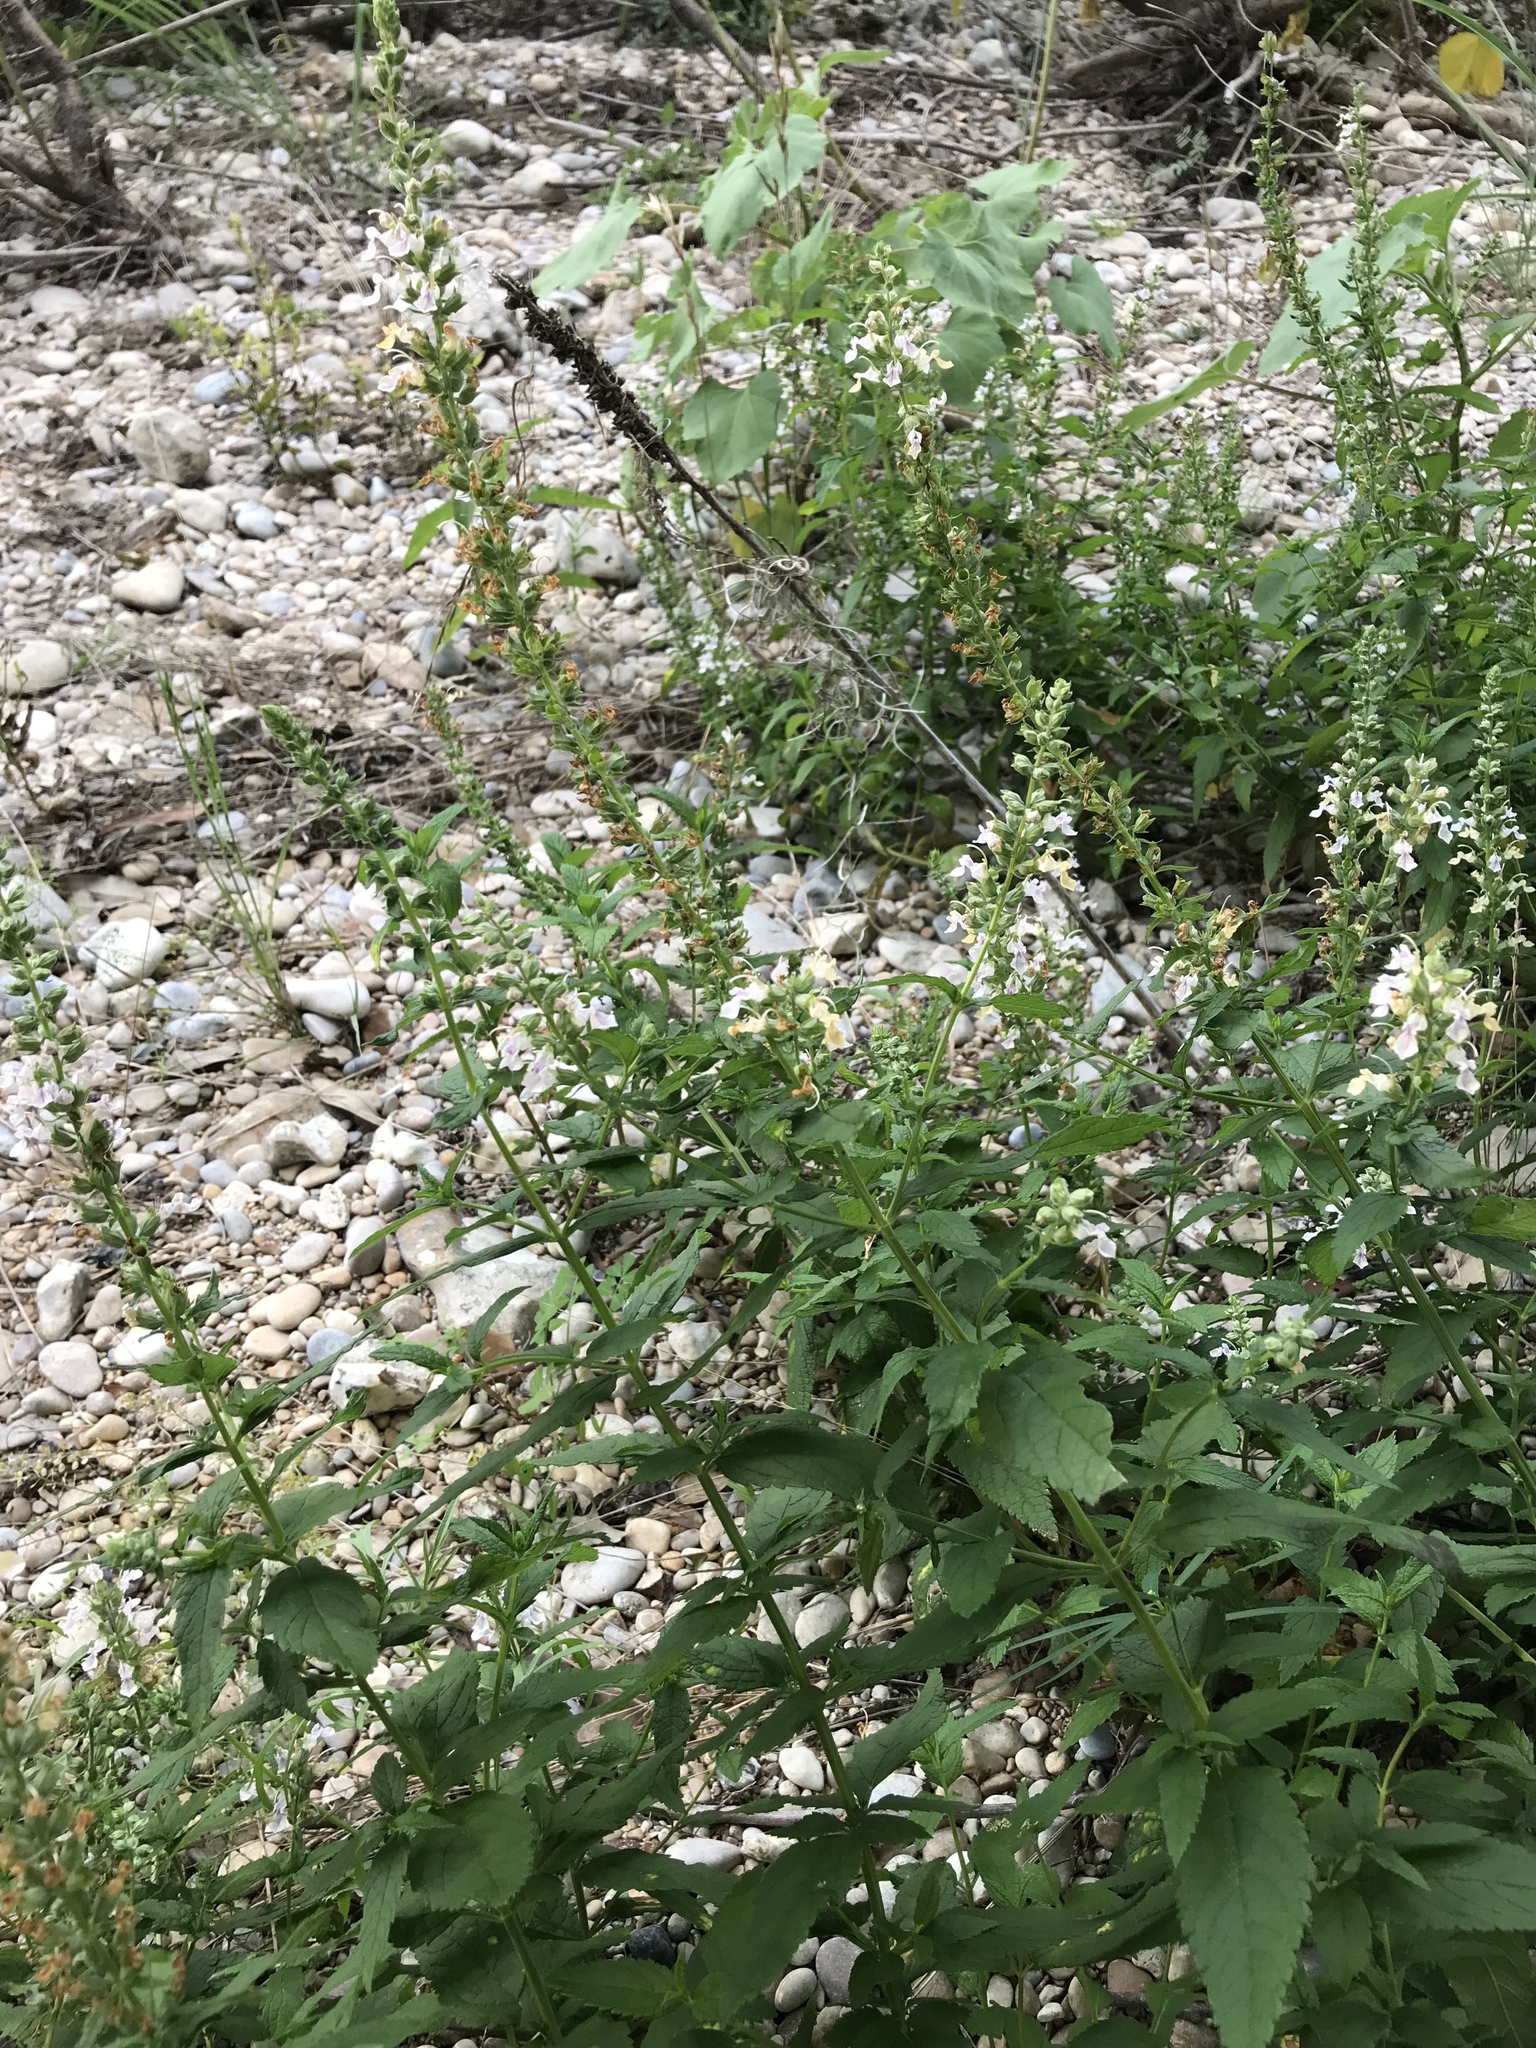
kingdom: Plantae
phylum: Tracheophyta
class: Magnoliopsida
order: Lamiales
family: Lamiaceae
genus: Teucrium
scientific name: Teucrium canadense
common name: American germander
